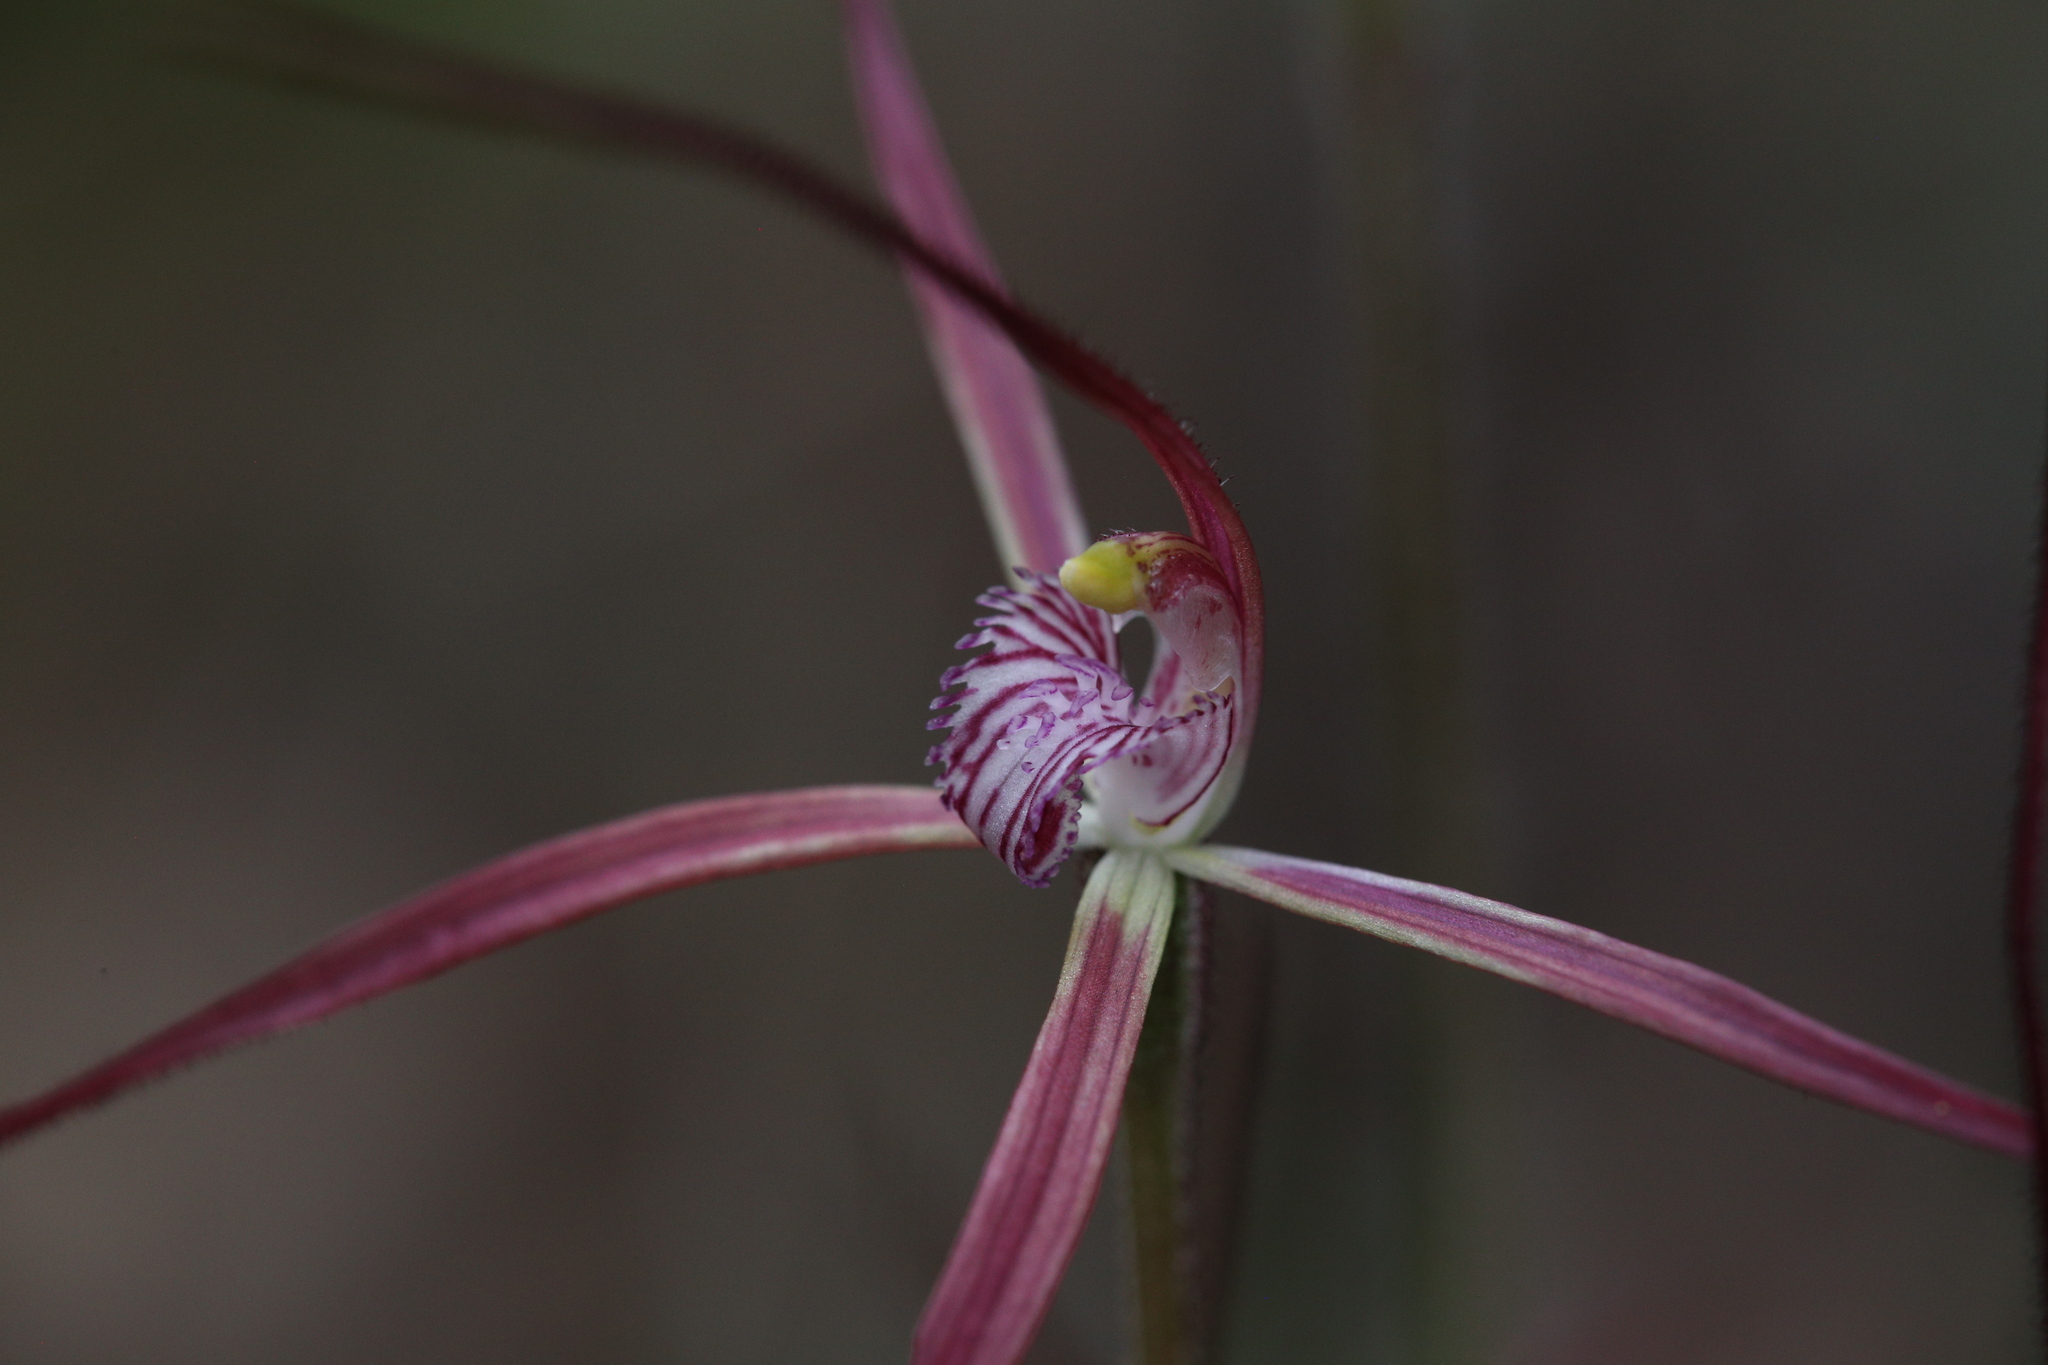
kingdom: Plantae
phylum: Tracheophyta
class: Liliopsida
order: Asparagales
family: Orchidaceae
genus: Caladenia
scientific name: Caladenia footeana
